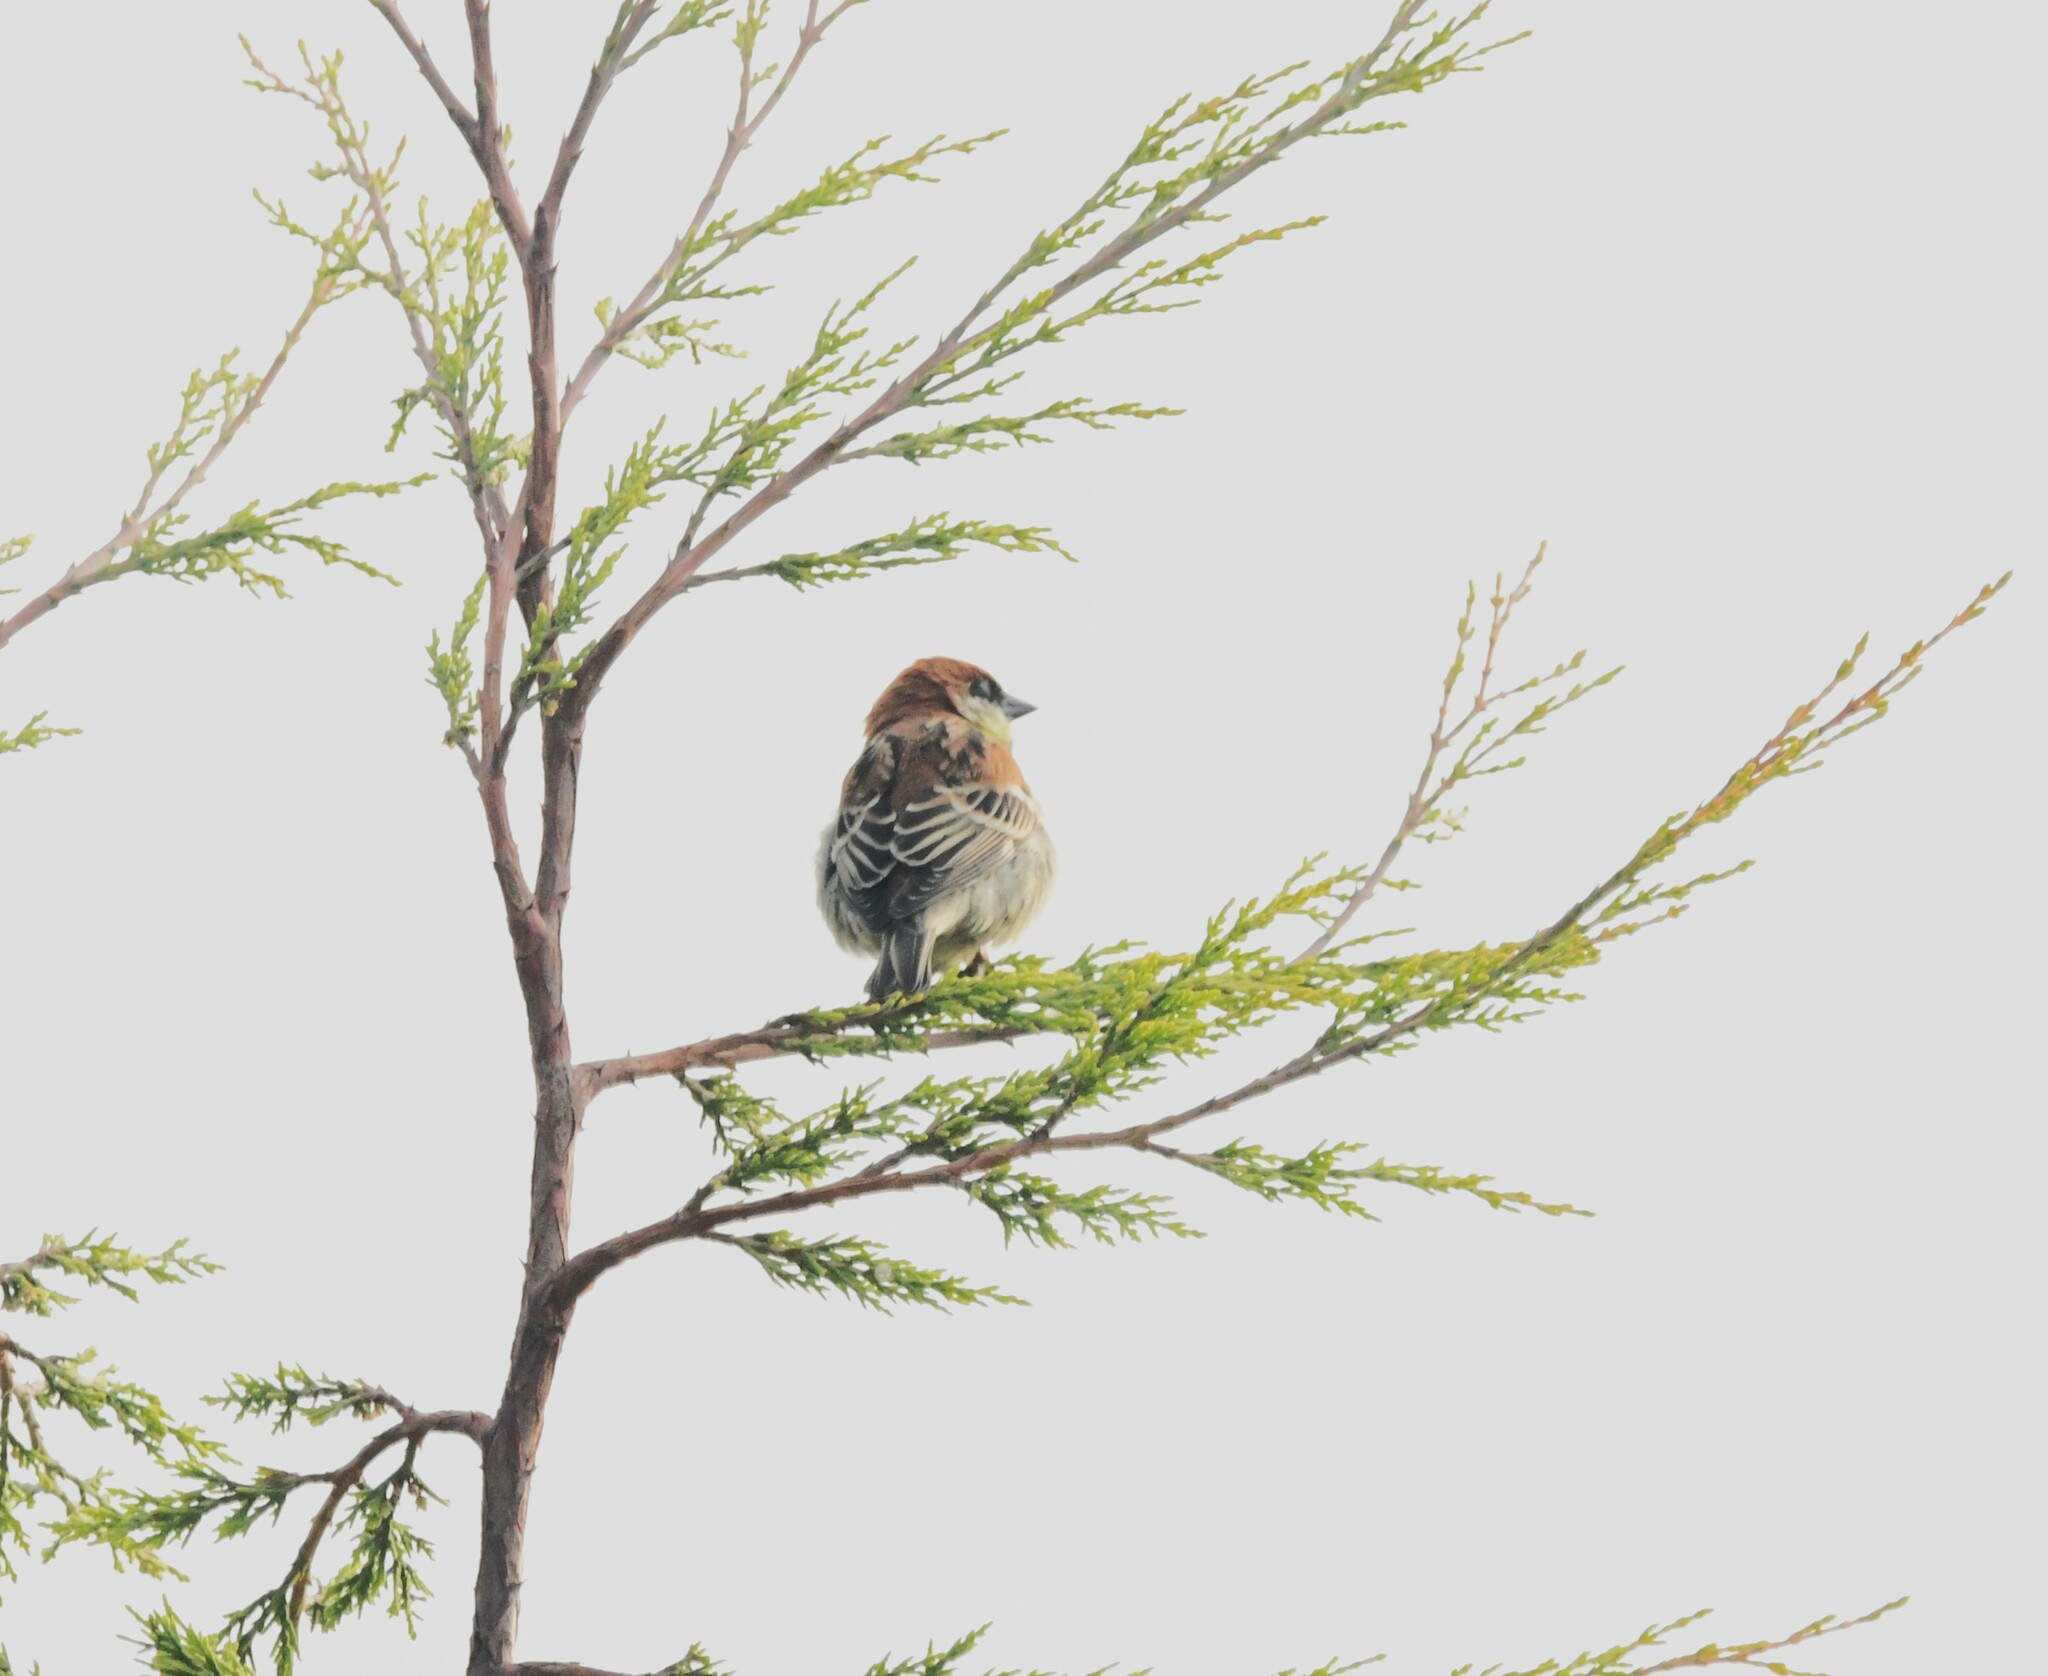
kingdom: Animalia
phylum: Chordata
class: Aves
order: Passeriformes
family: Passeridae
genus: Passer
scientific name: Passer cinnamomeus
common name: Russet sparrow
